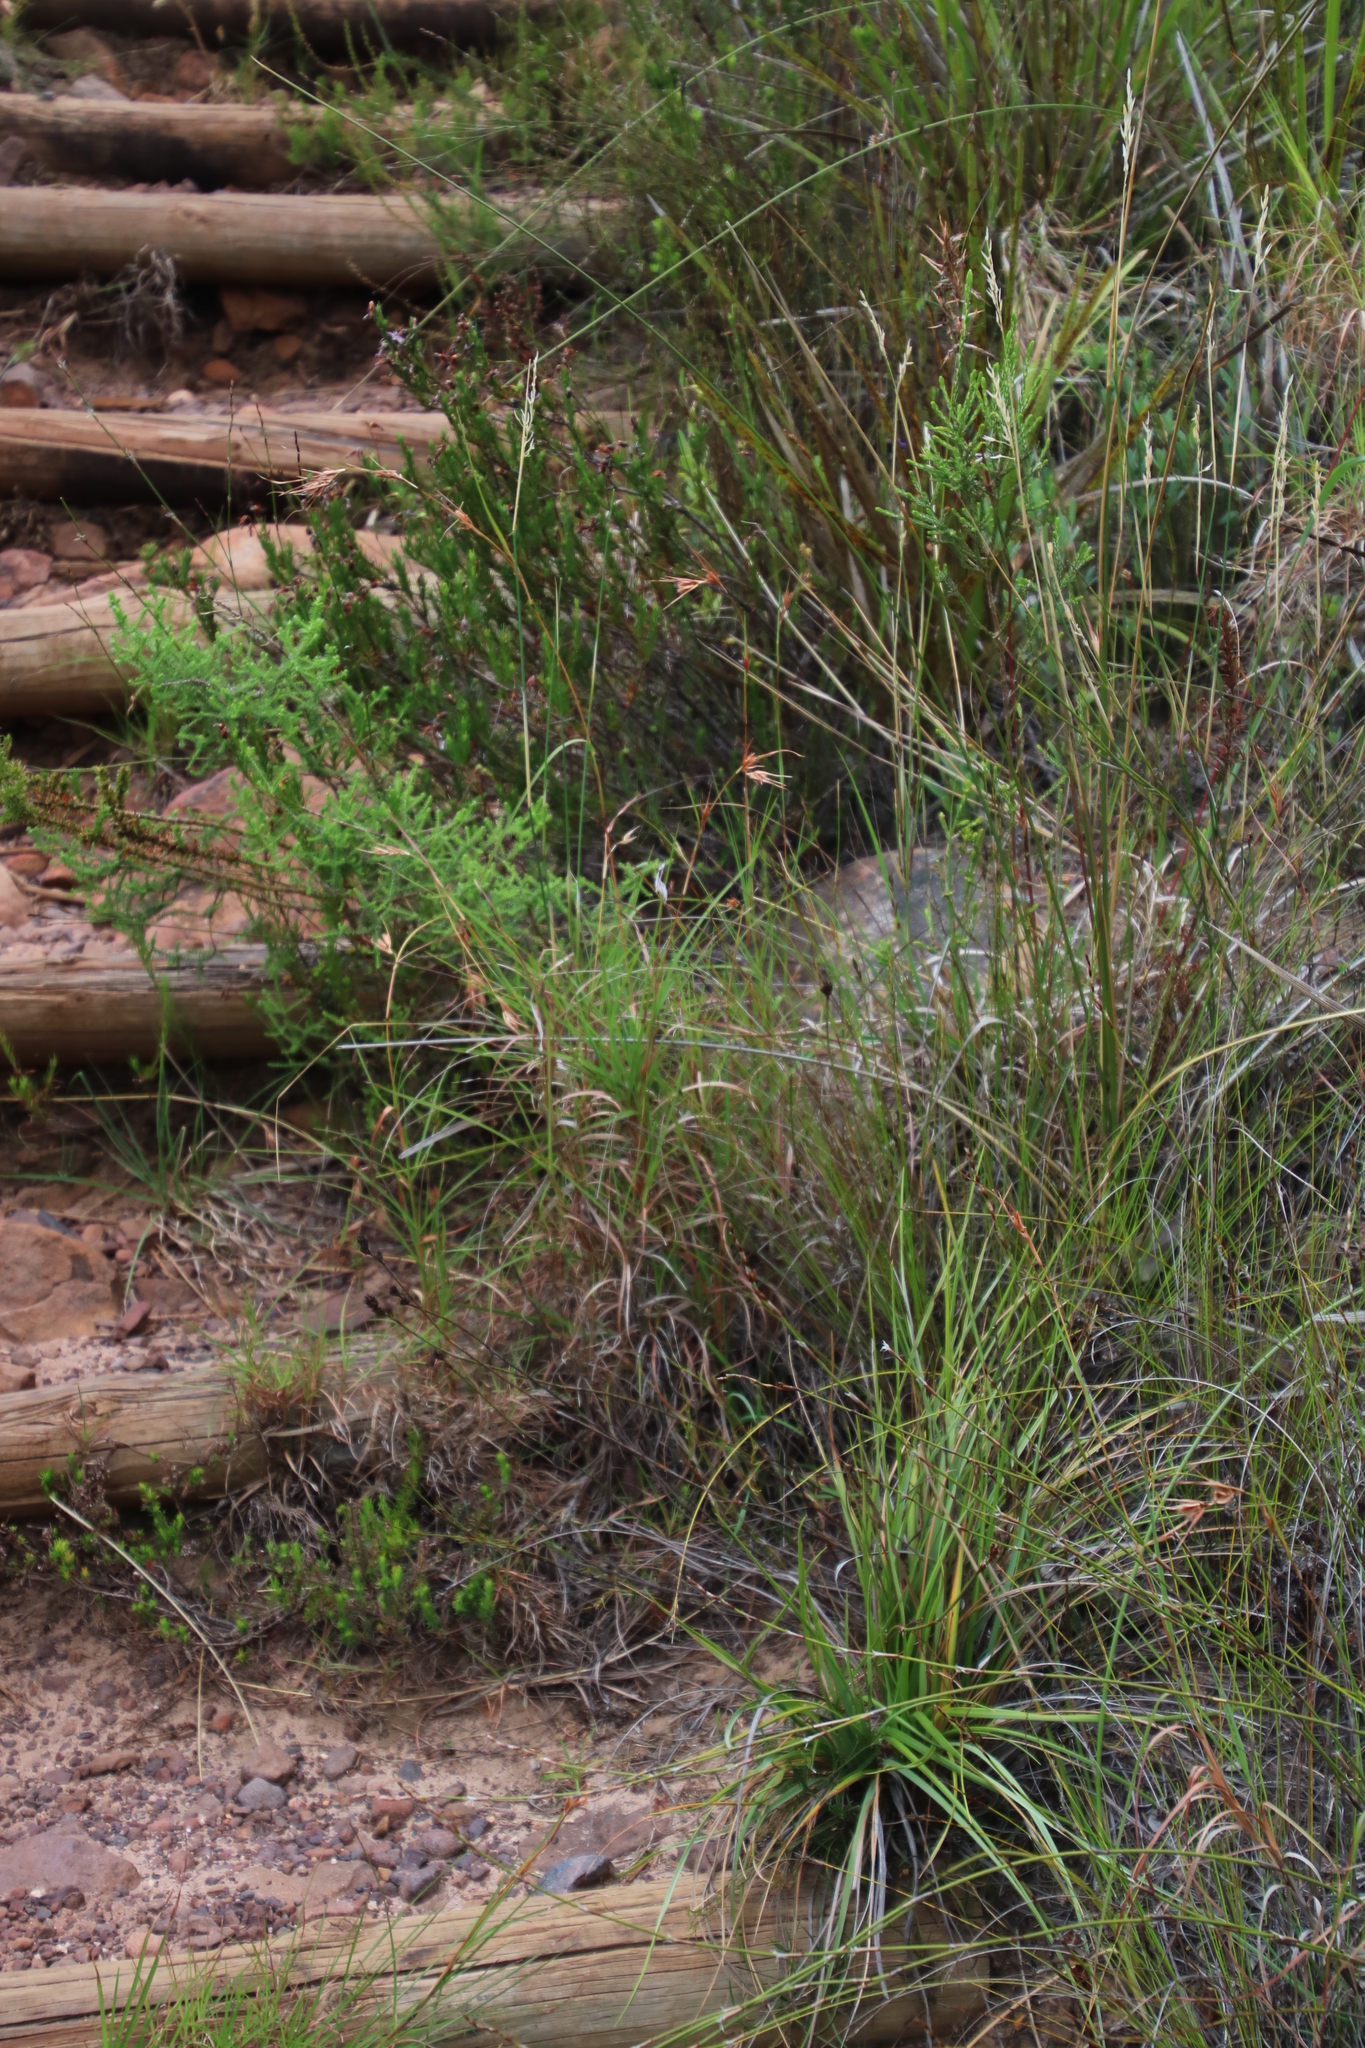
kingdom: Plantae
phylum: Tracheophyta
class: Liliopsida
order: Poales
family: Poaceae
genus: Themeda
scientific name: Themeda triandra
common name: Kangaroo grass
